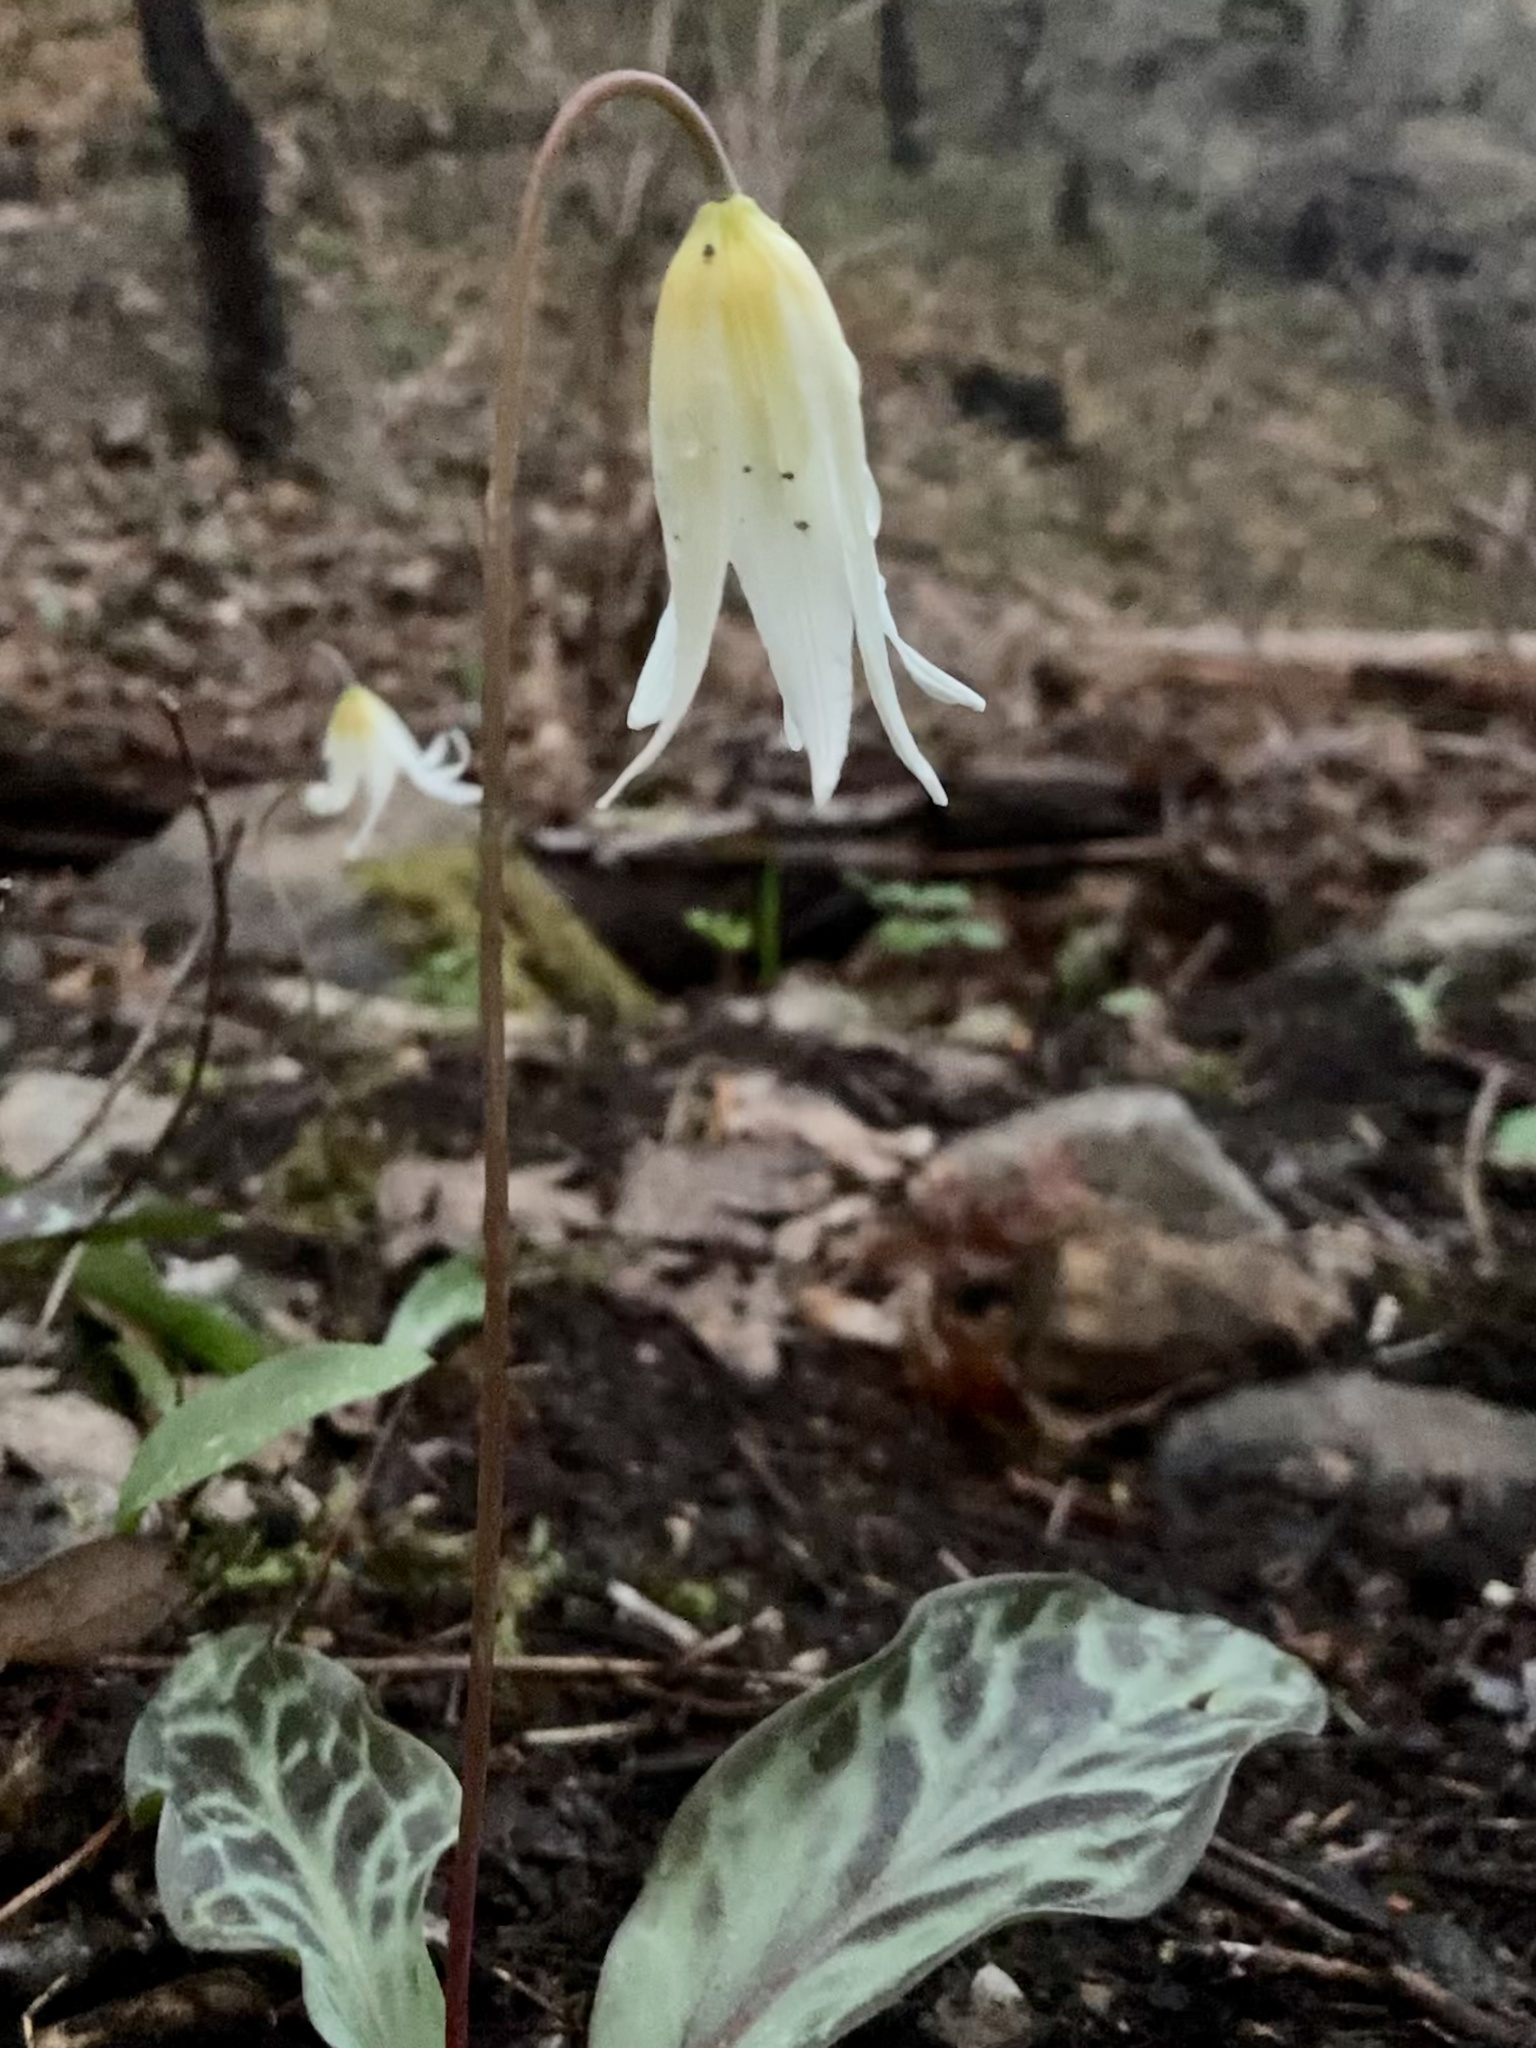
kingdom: Plantae
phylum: Tracheophyta
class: Liliopsida
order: Liliales
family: Liliaceae
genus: Erythronium
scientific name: Erythronium oregonum
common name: Giant adder's-tongue
